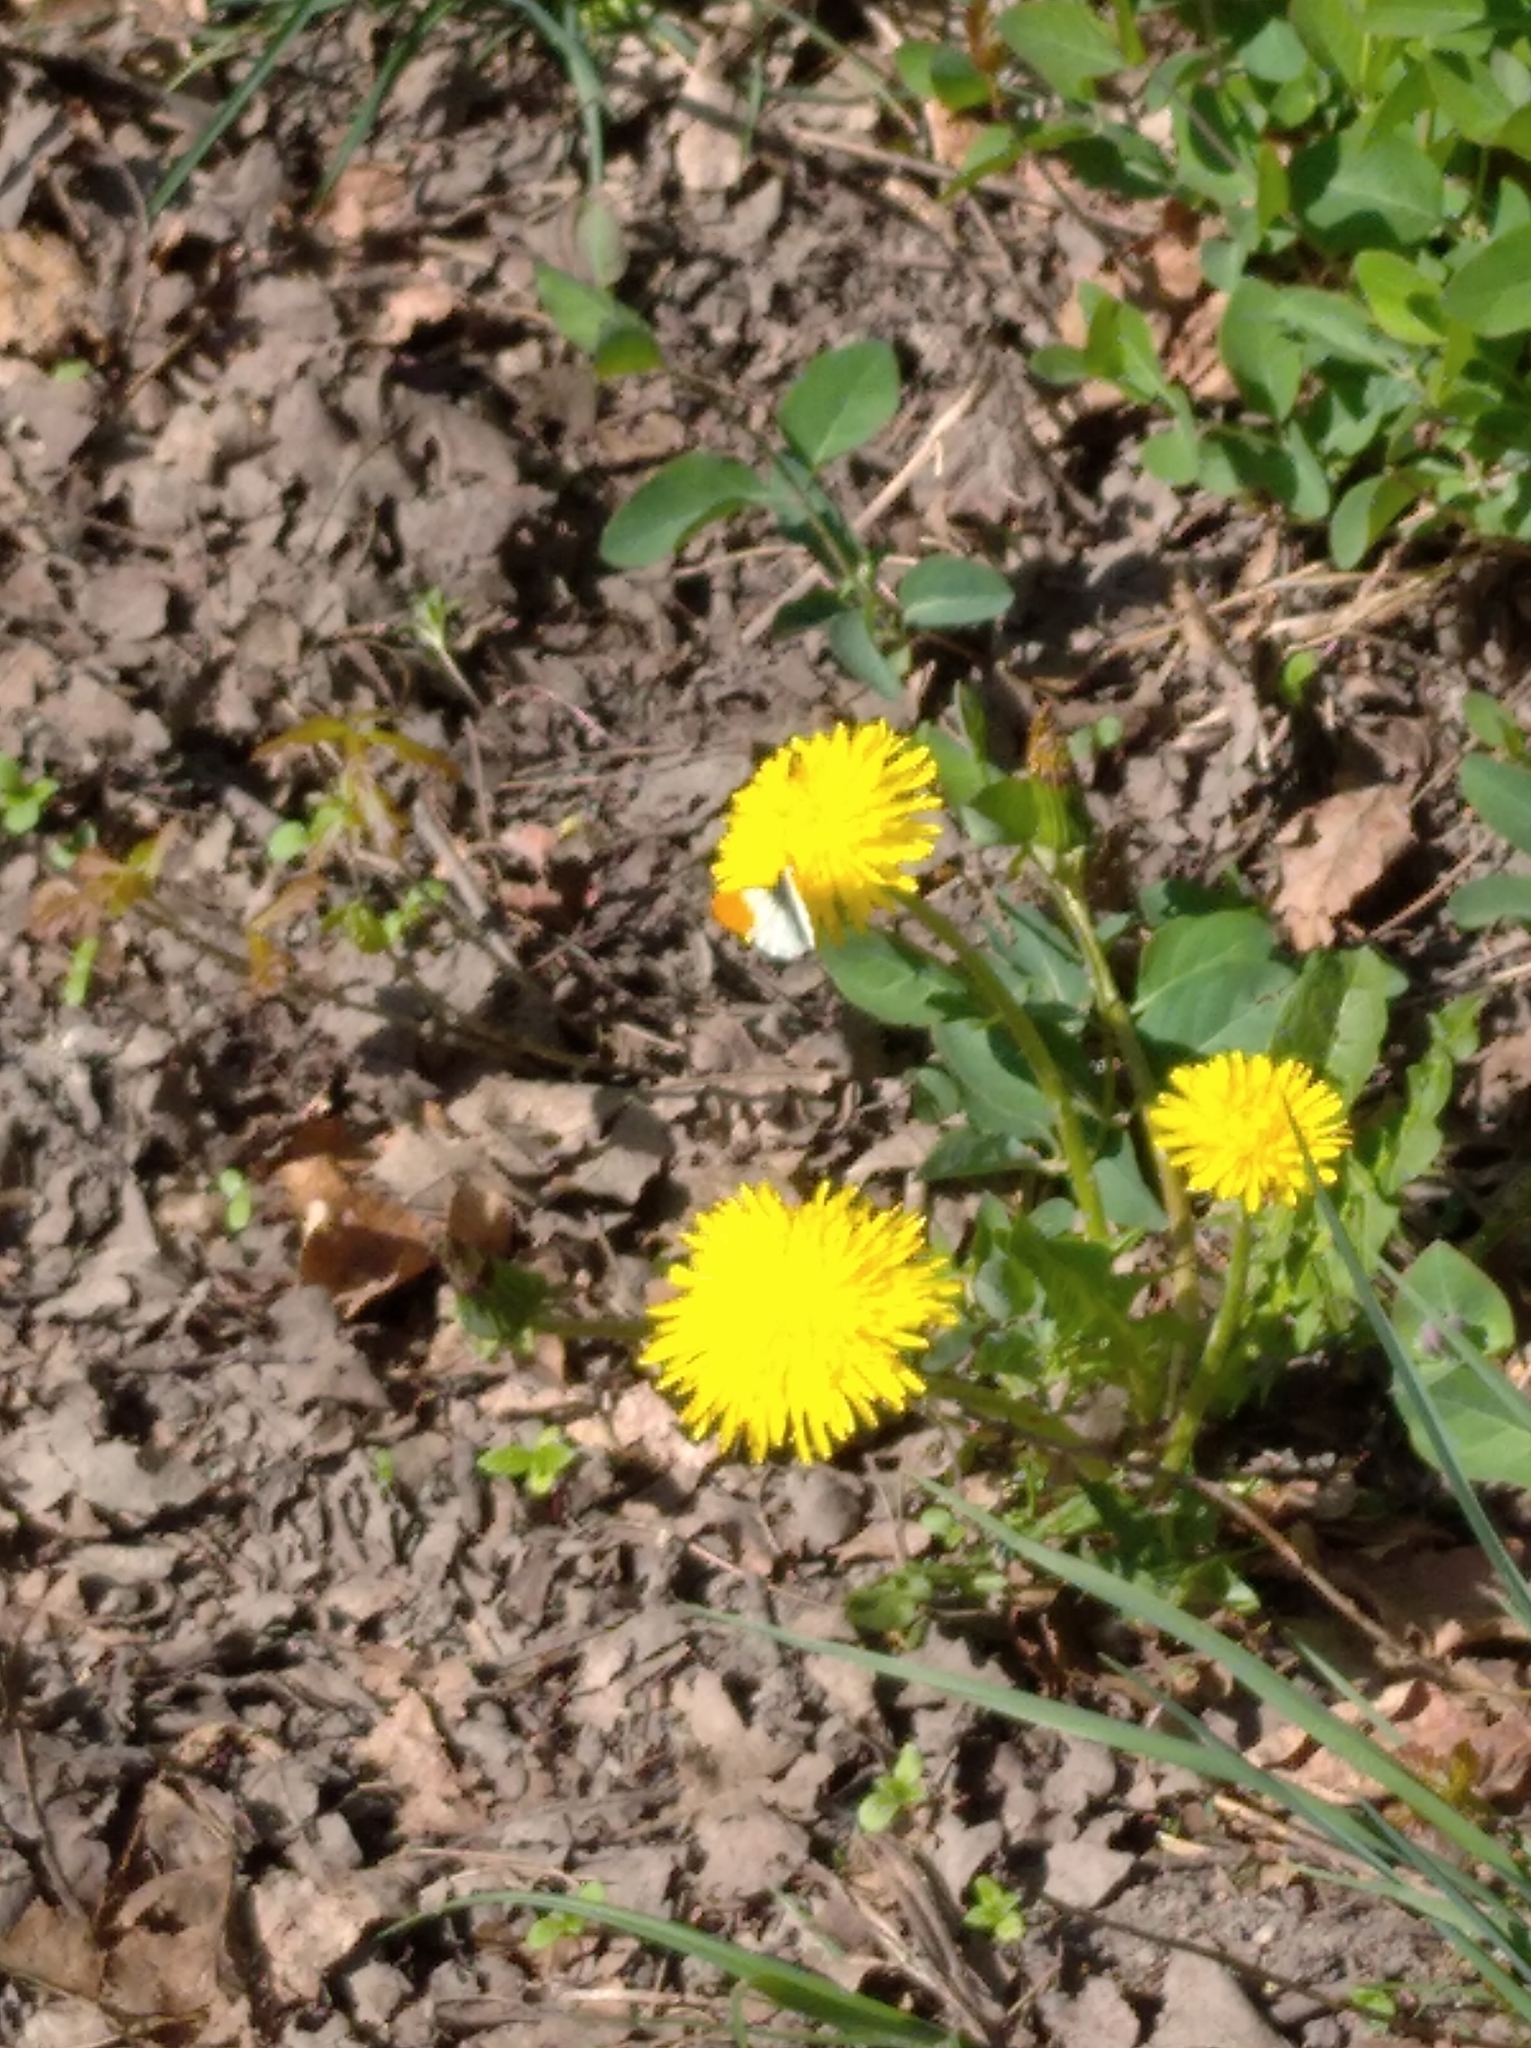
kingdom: Animalia
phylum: Arthropoda
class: Insecta
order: Lepidoptera
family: Pieridae
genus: Anthocharis
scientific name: Anthocharis cardamines
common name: Orange-tip
